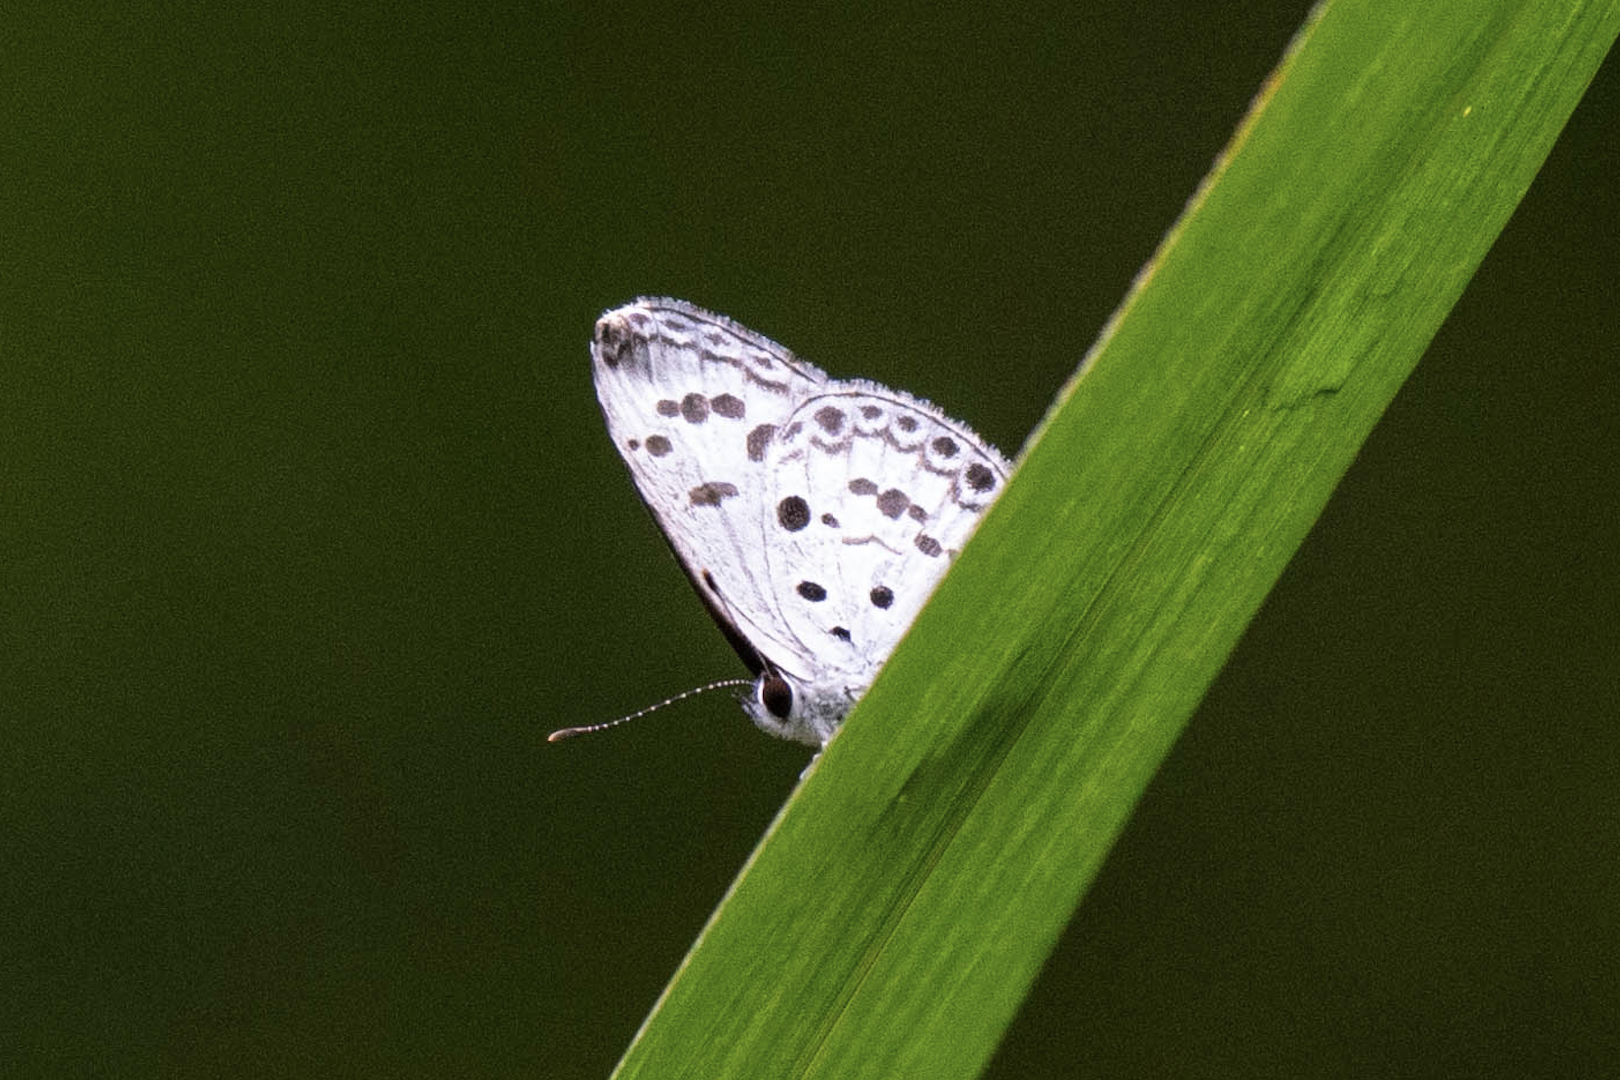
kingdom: Animalia
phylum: Arthropoda
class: Insecta
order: Lepidoptera
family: Lycaenidae
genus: Acytolepis
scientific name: Acytolepis puspa
